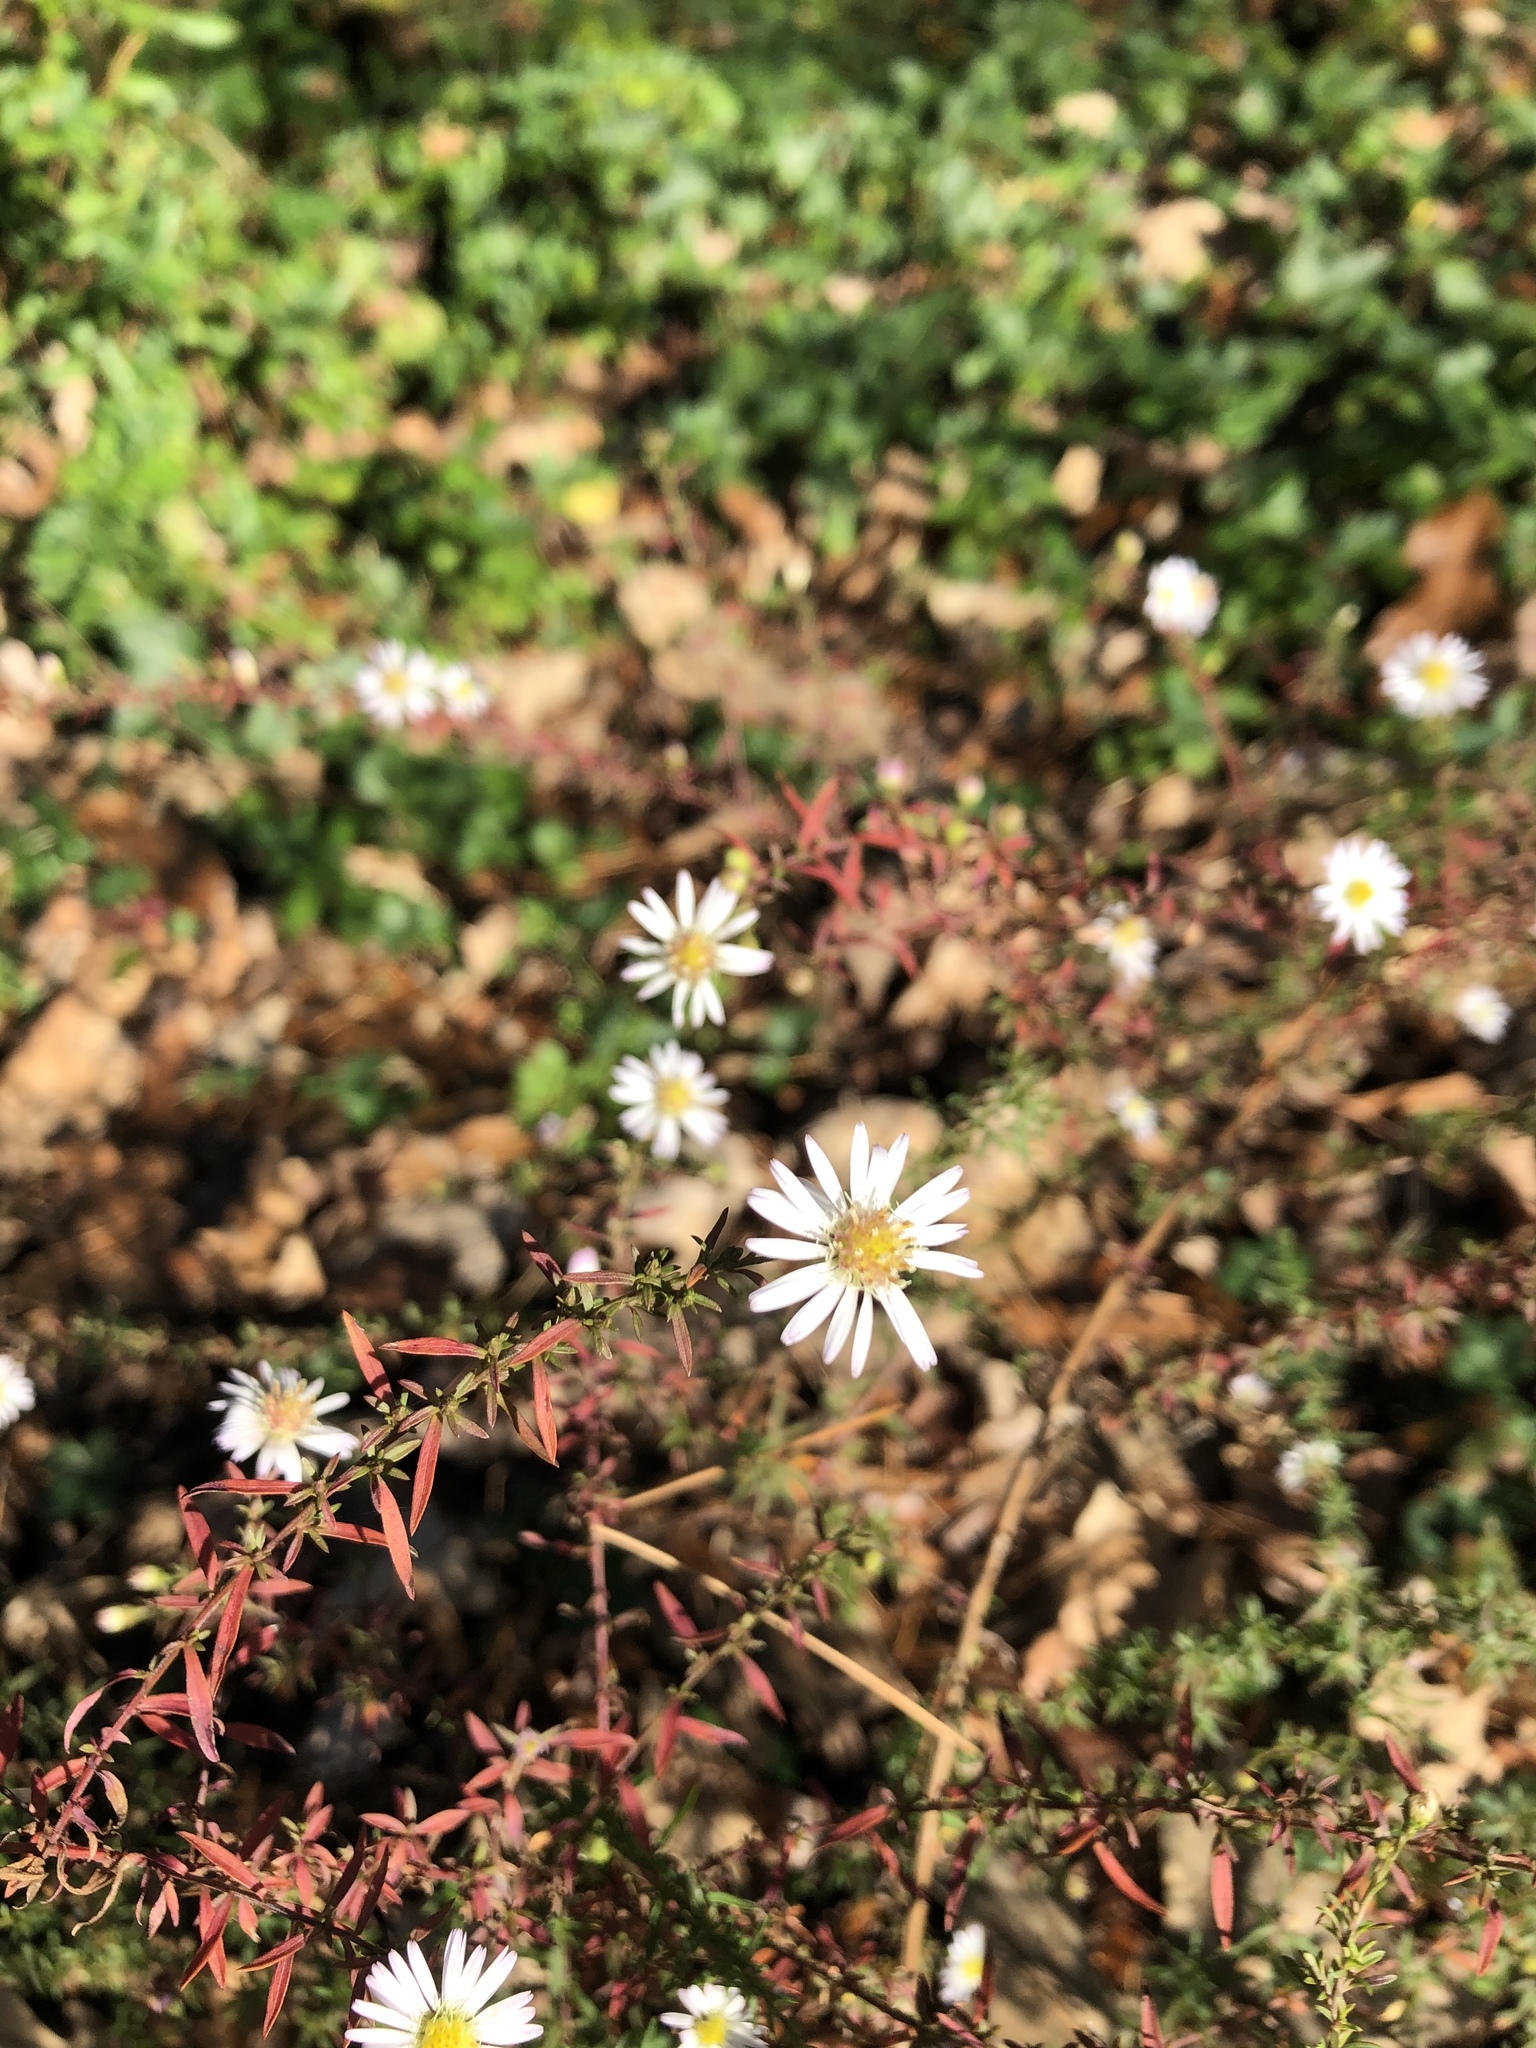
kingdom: Plantae
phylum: Tracheophyta
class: Magnoliopsida
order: Asterales
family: Asteraceae
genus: Symphyotrichum
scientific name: Symphyotrichum
